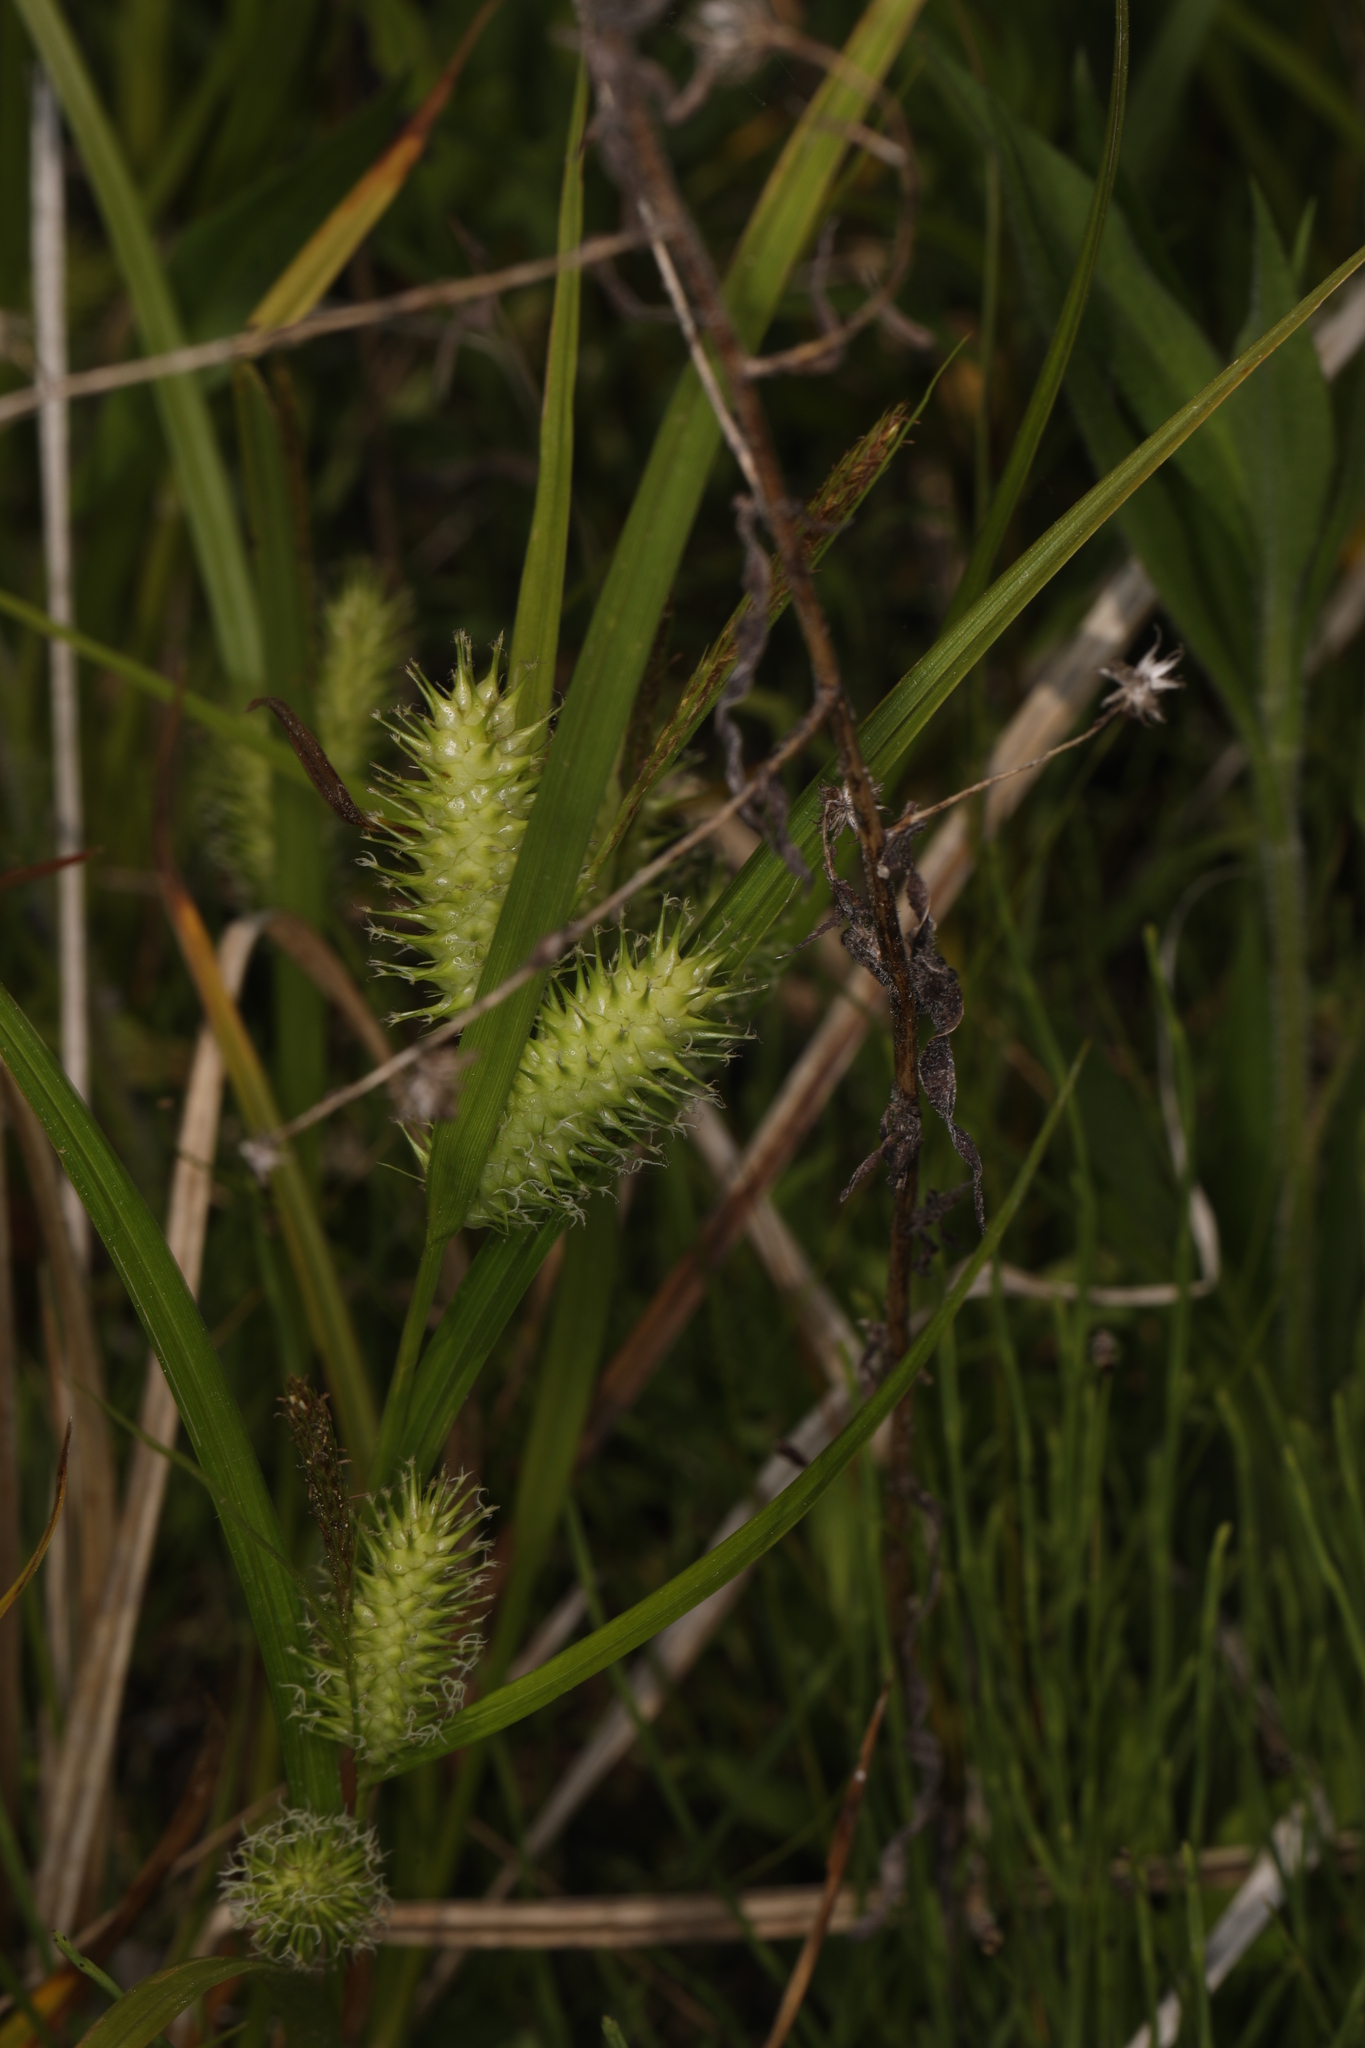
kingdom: Plantae
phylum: Tracheophyta
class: Liliopsida
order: Poales
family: Cyperaceae
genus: Carex
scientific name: Carex lurida
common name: Sallow sedge
